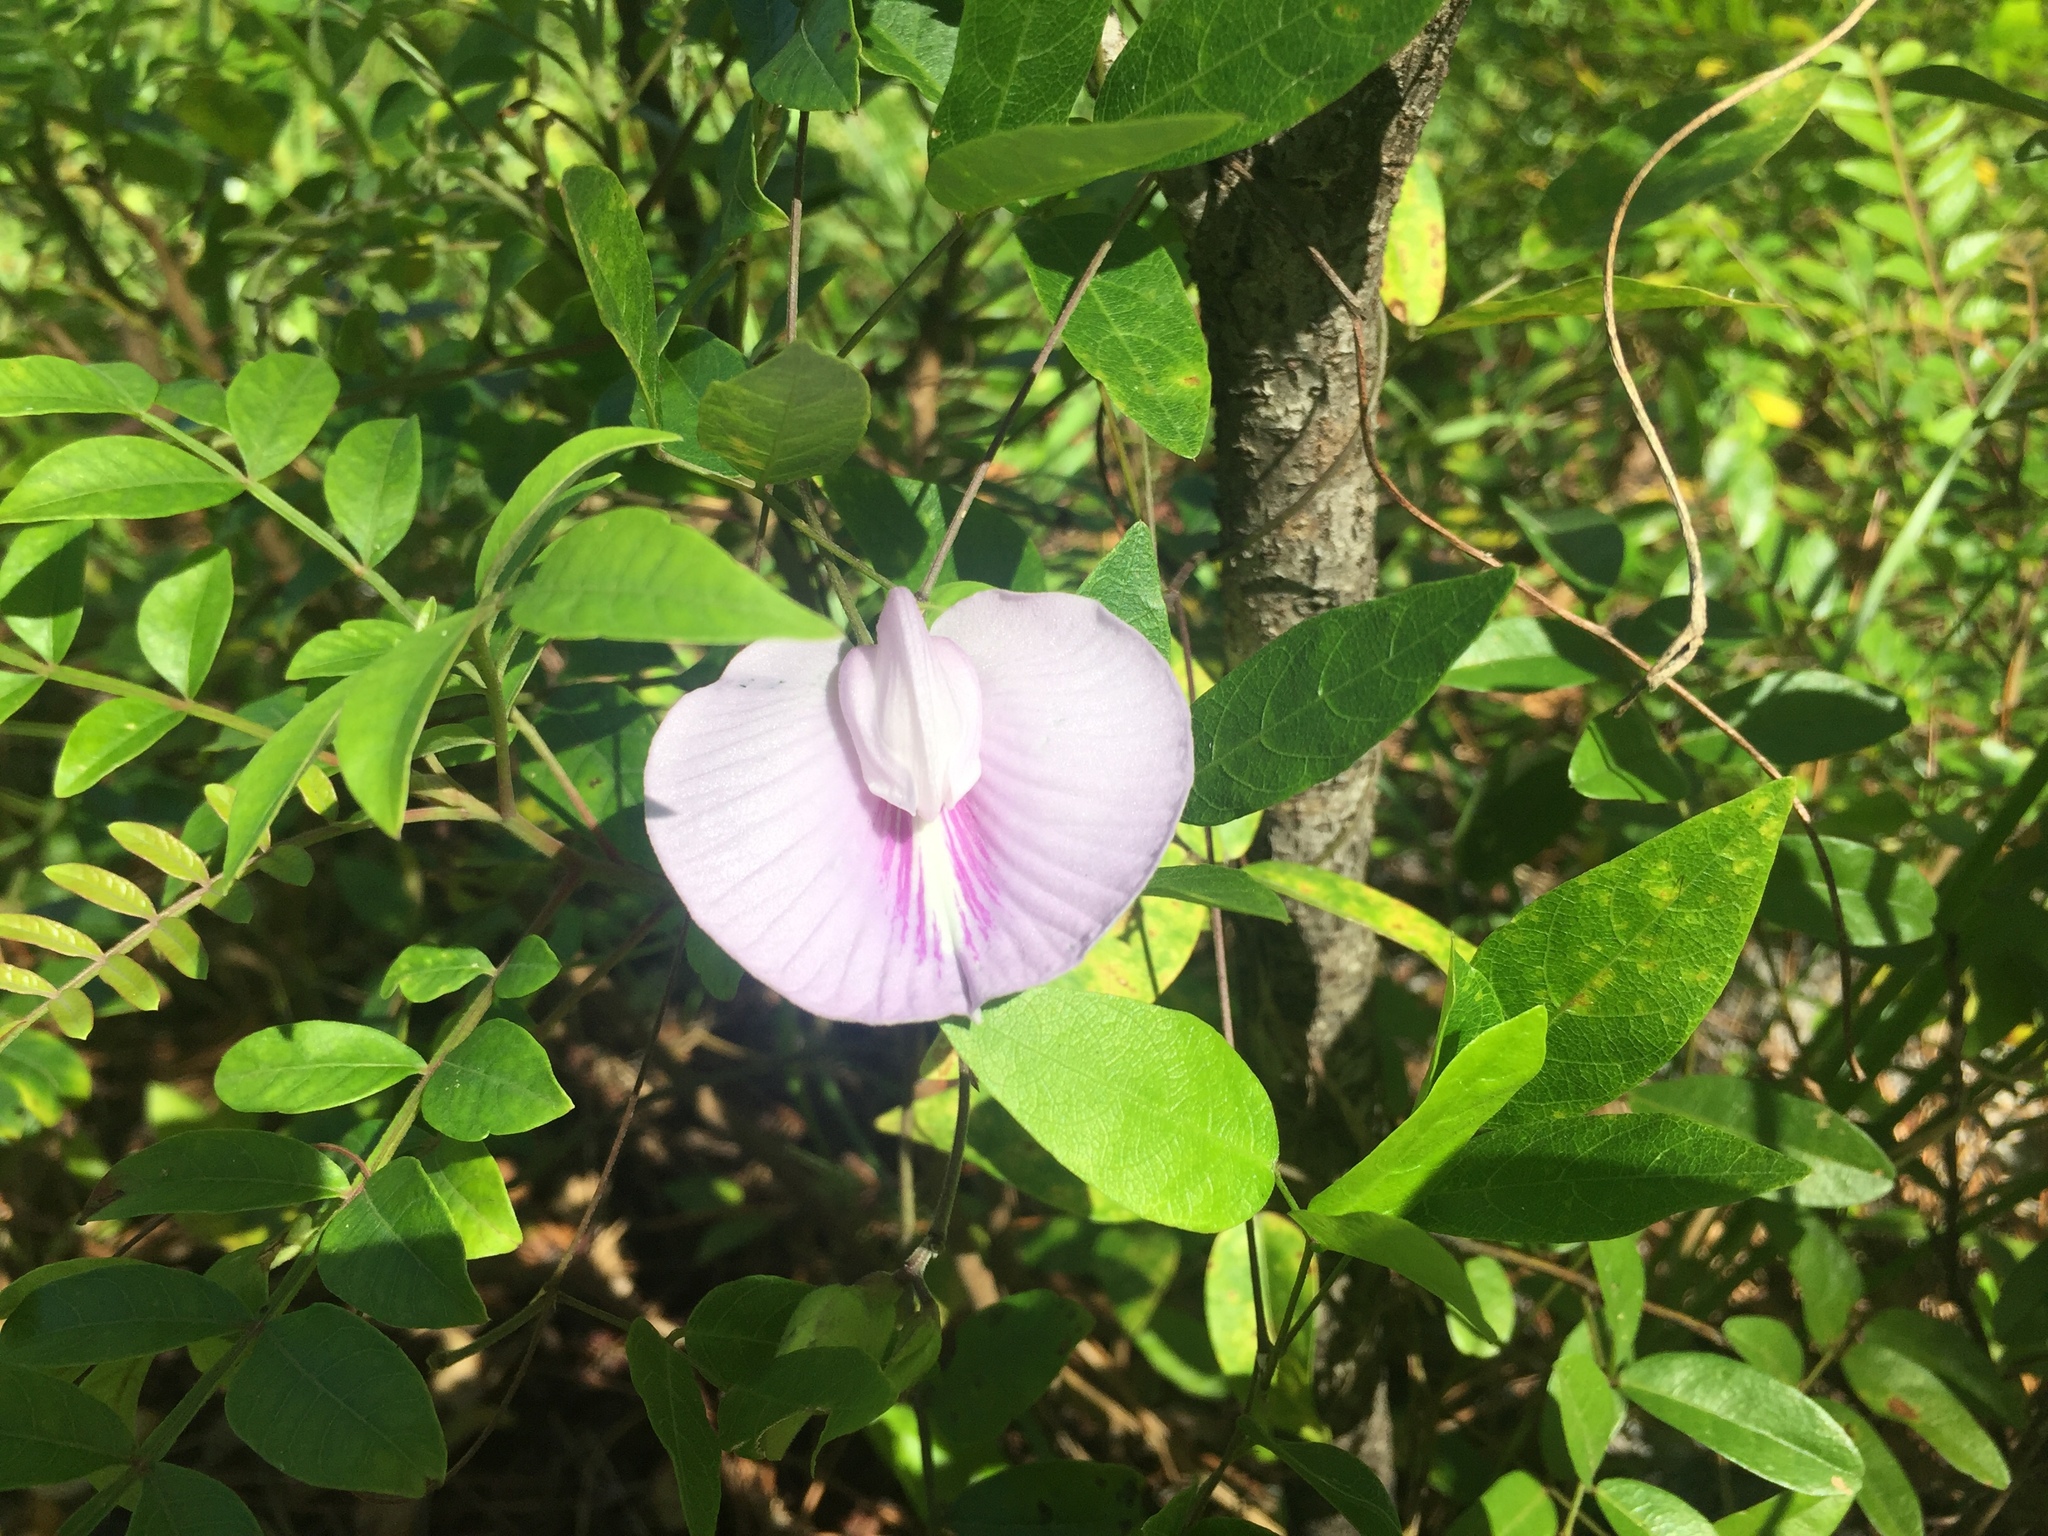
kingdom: Plantae
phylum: Tracheophyta
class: Magnoliopsida
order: Fabales
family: Fabaceae
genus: Centrosema
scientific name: Centrosema virginianum
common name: Butterfly-pea
